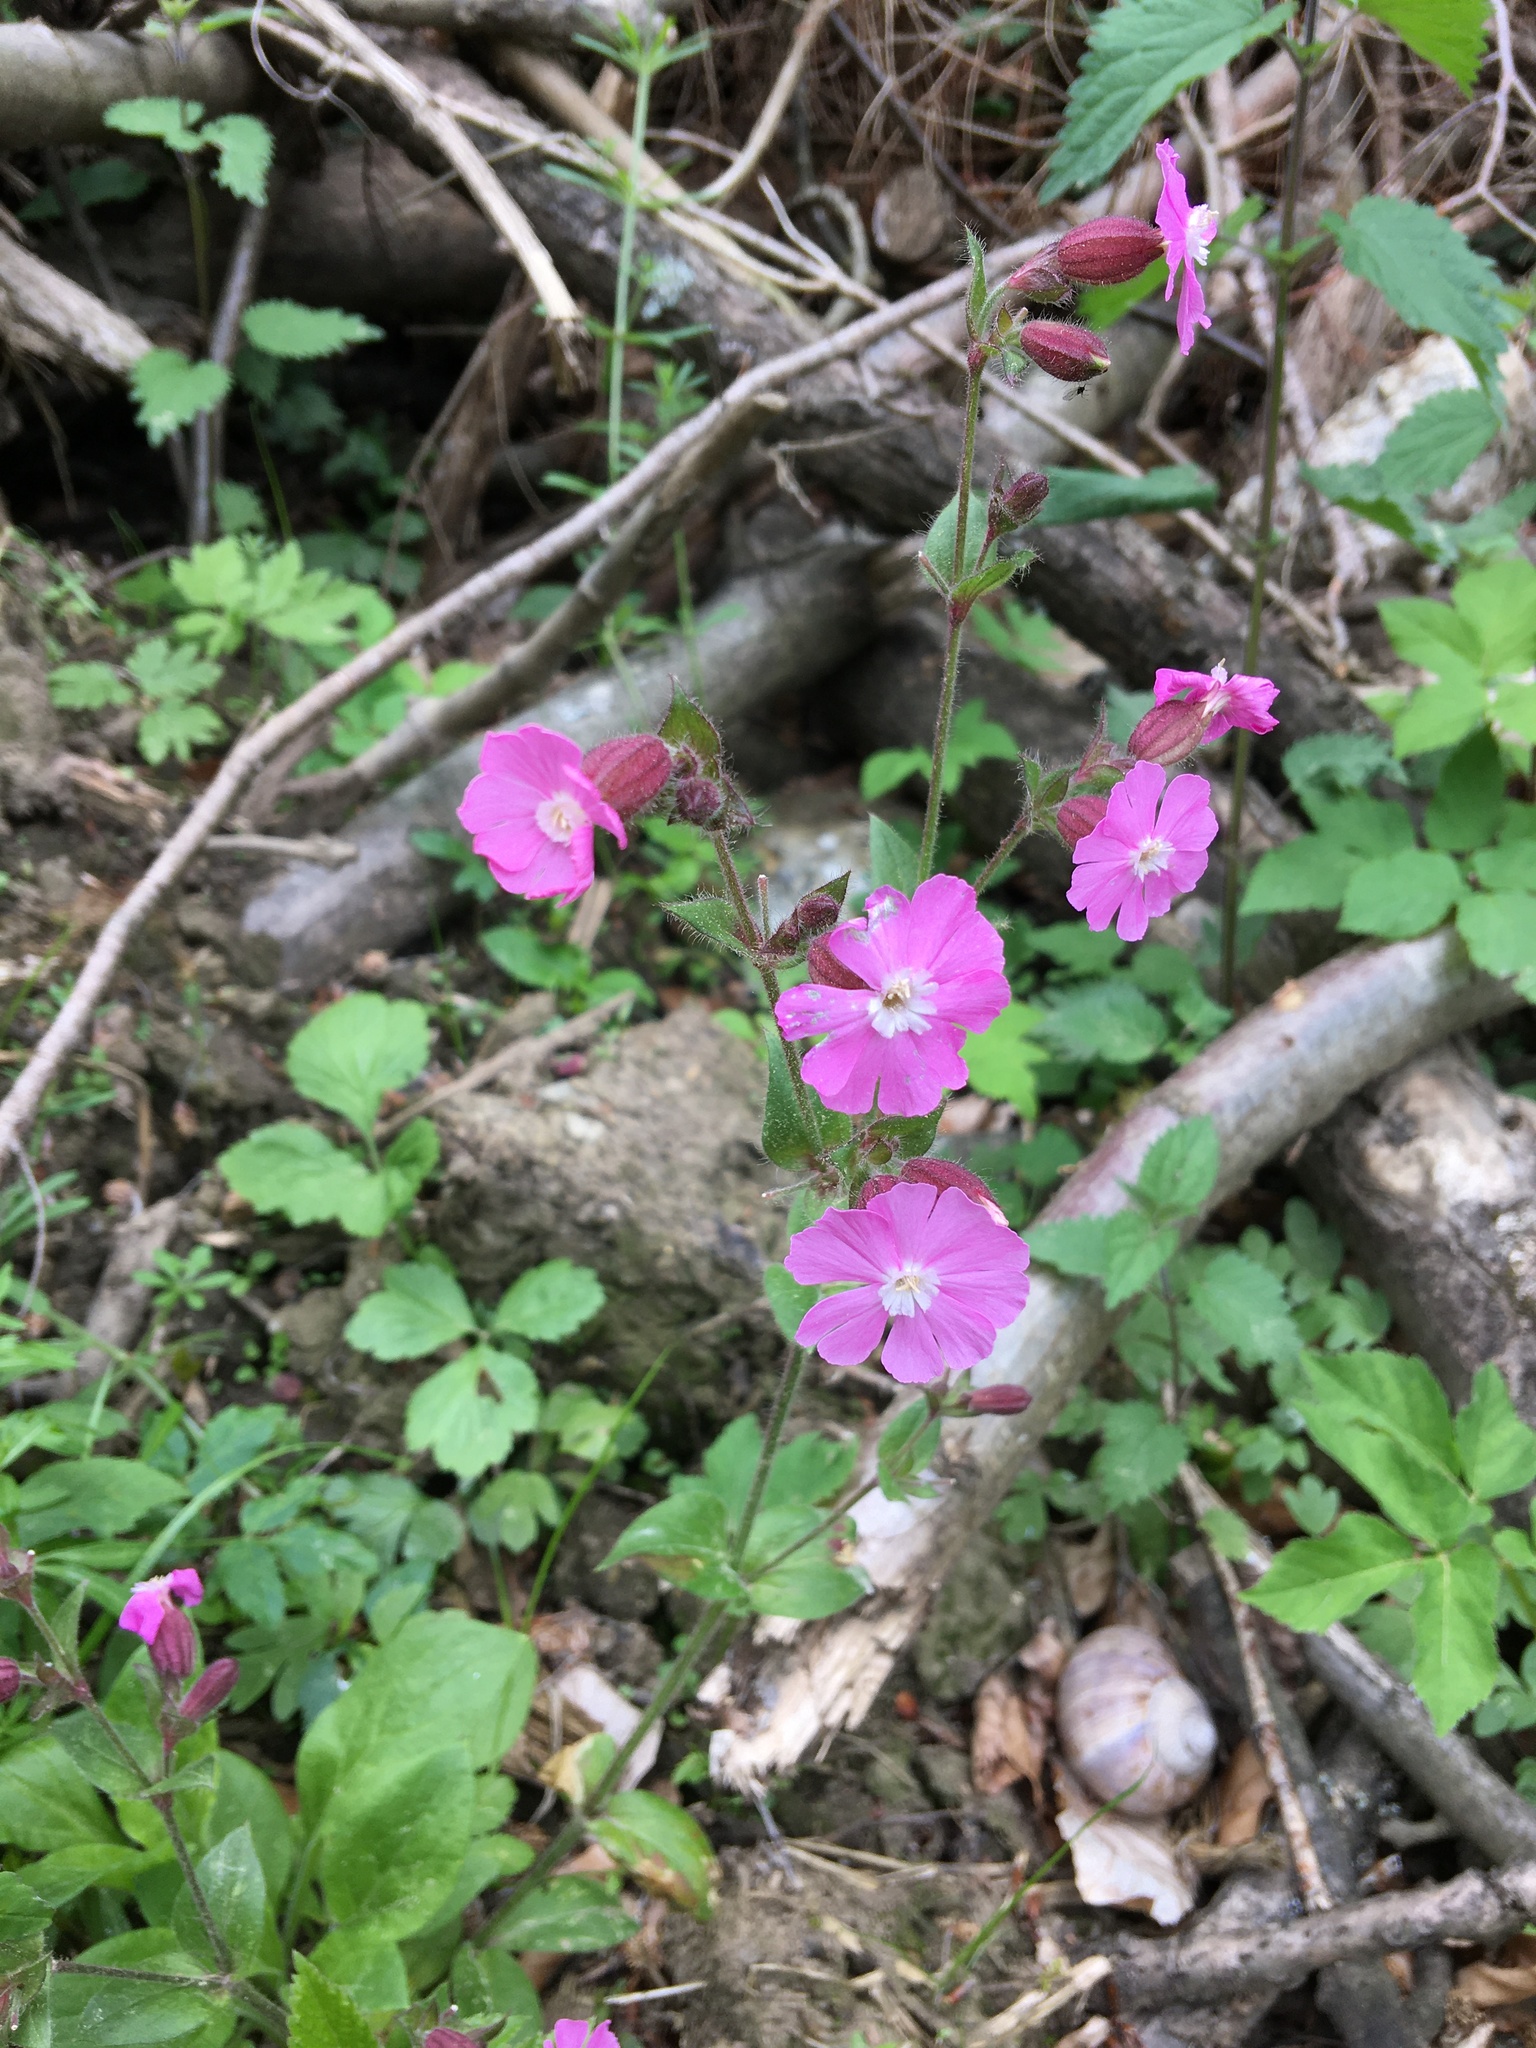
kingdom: Plantae
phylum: Tracheophyta
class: Magnoliopsida
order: Caryophyllales
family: Caryophyllaceae
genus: Silene
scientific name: Silene dioica
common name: Red campion
